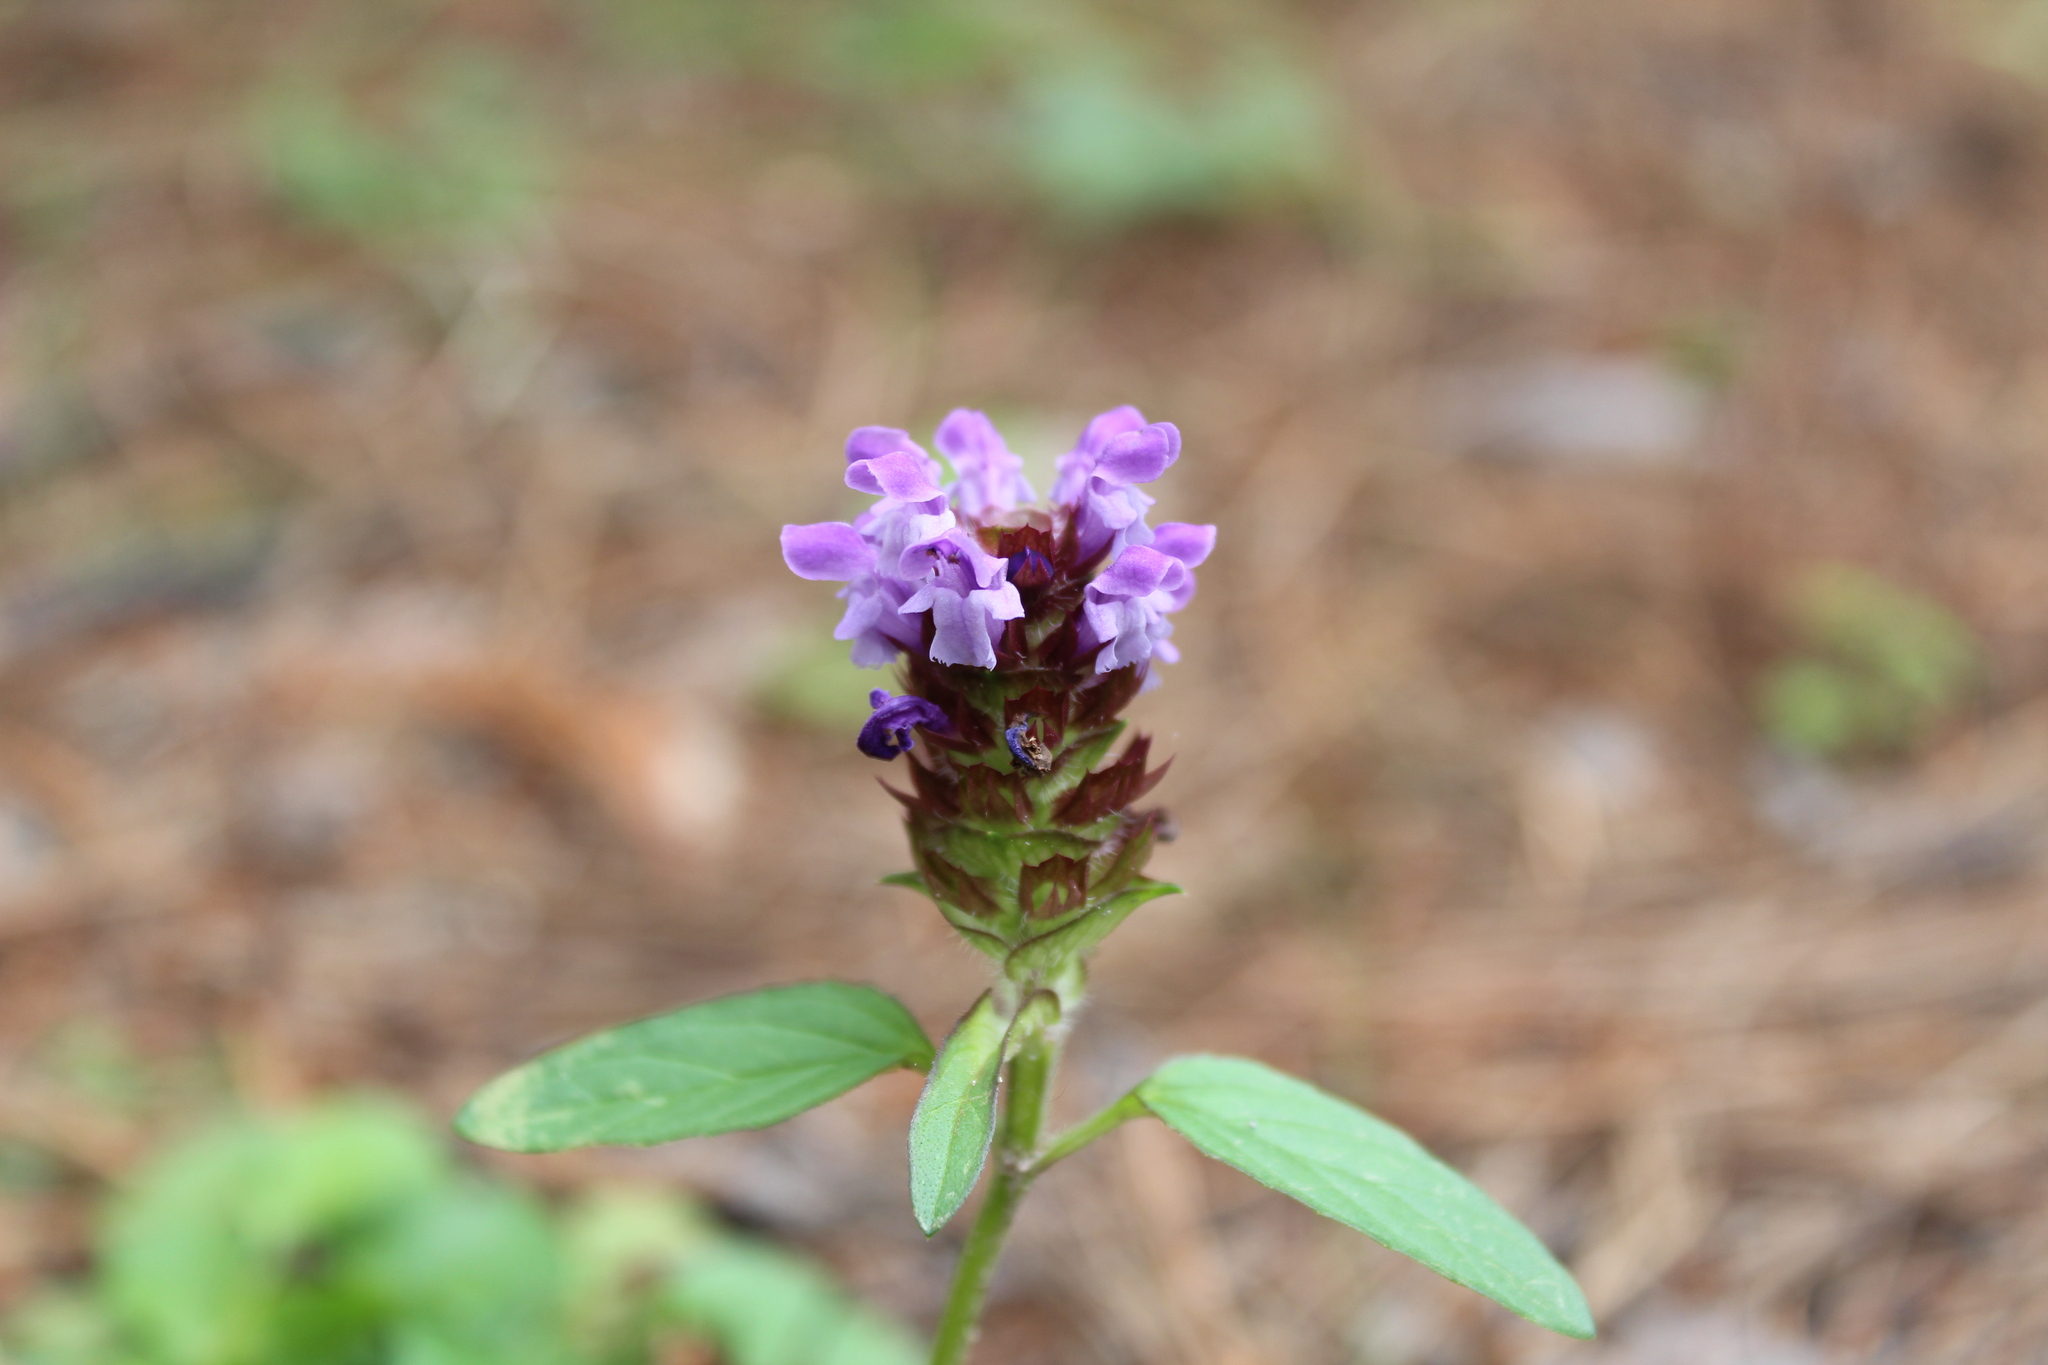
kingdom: Plantae
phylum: Tracheophyta
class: Magnoliopsida
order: Lamiales
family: Lamiaceae
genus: Prunella
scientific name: Prunella vulgaris
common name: Heal-all
